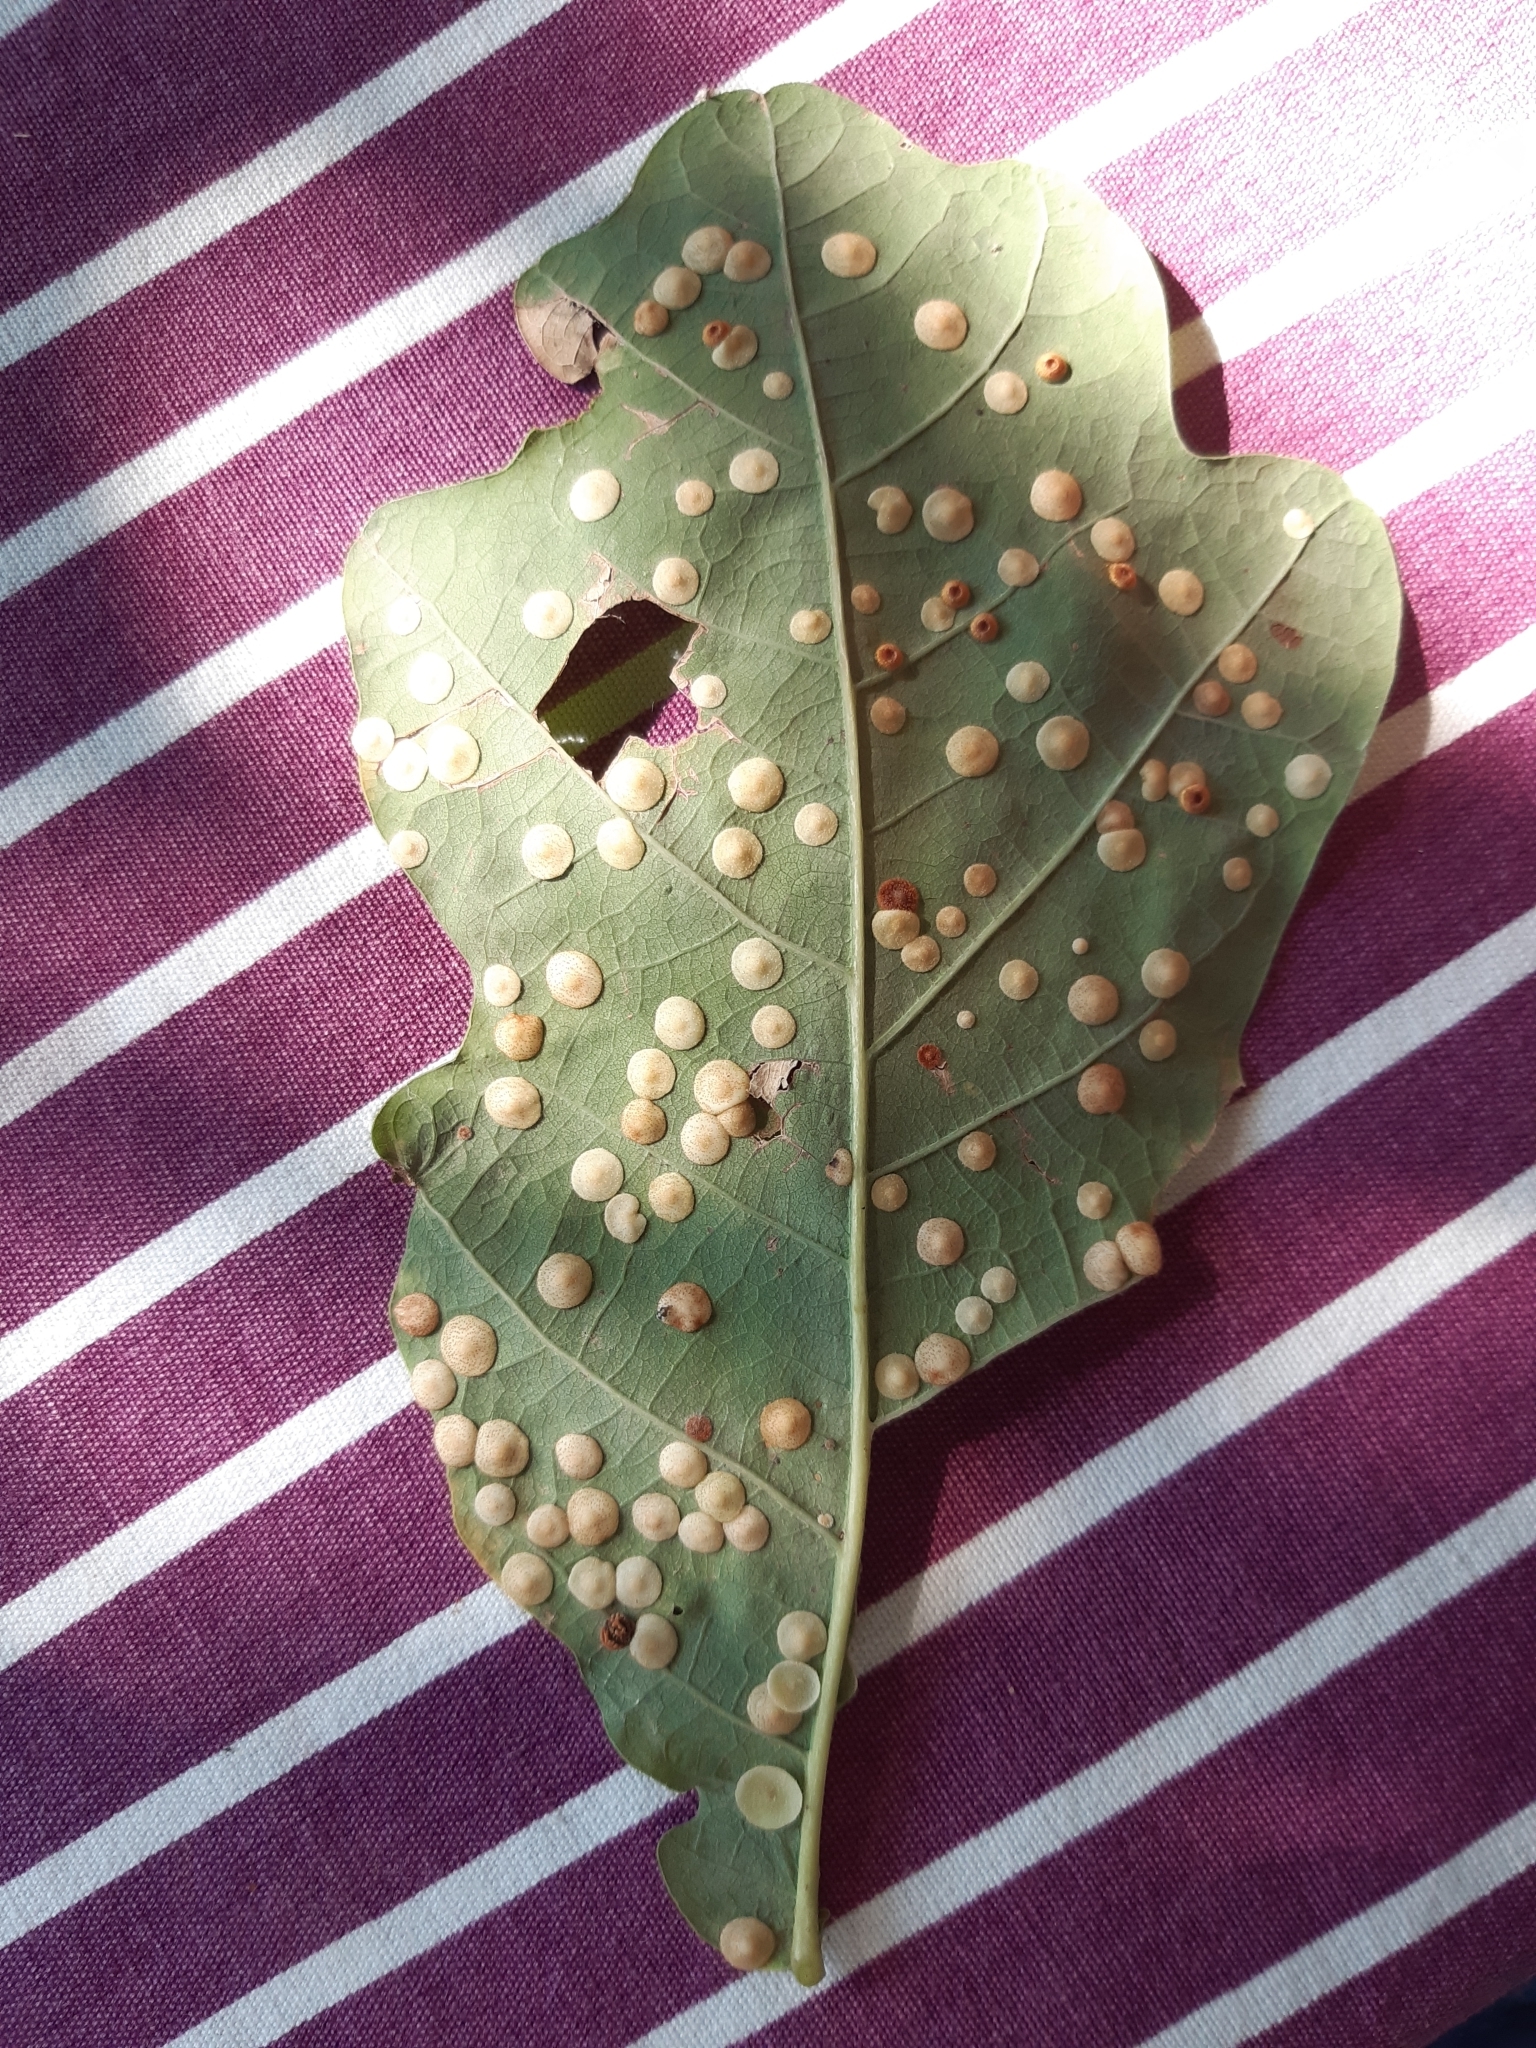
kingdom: Animalia
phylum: Arthropoda
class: Insecta
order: Hymenoptera
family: Cynipidae
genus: Neuroterus
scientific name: Neuroterus quercusbaccarum
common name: Common spangle gall
